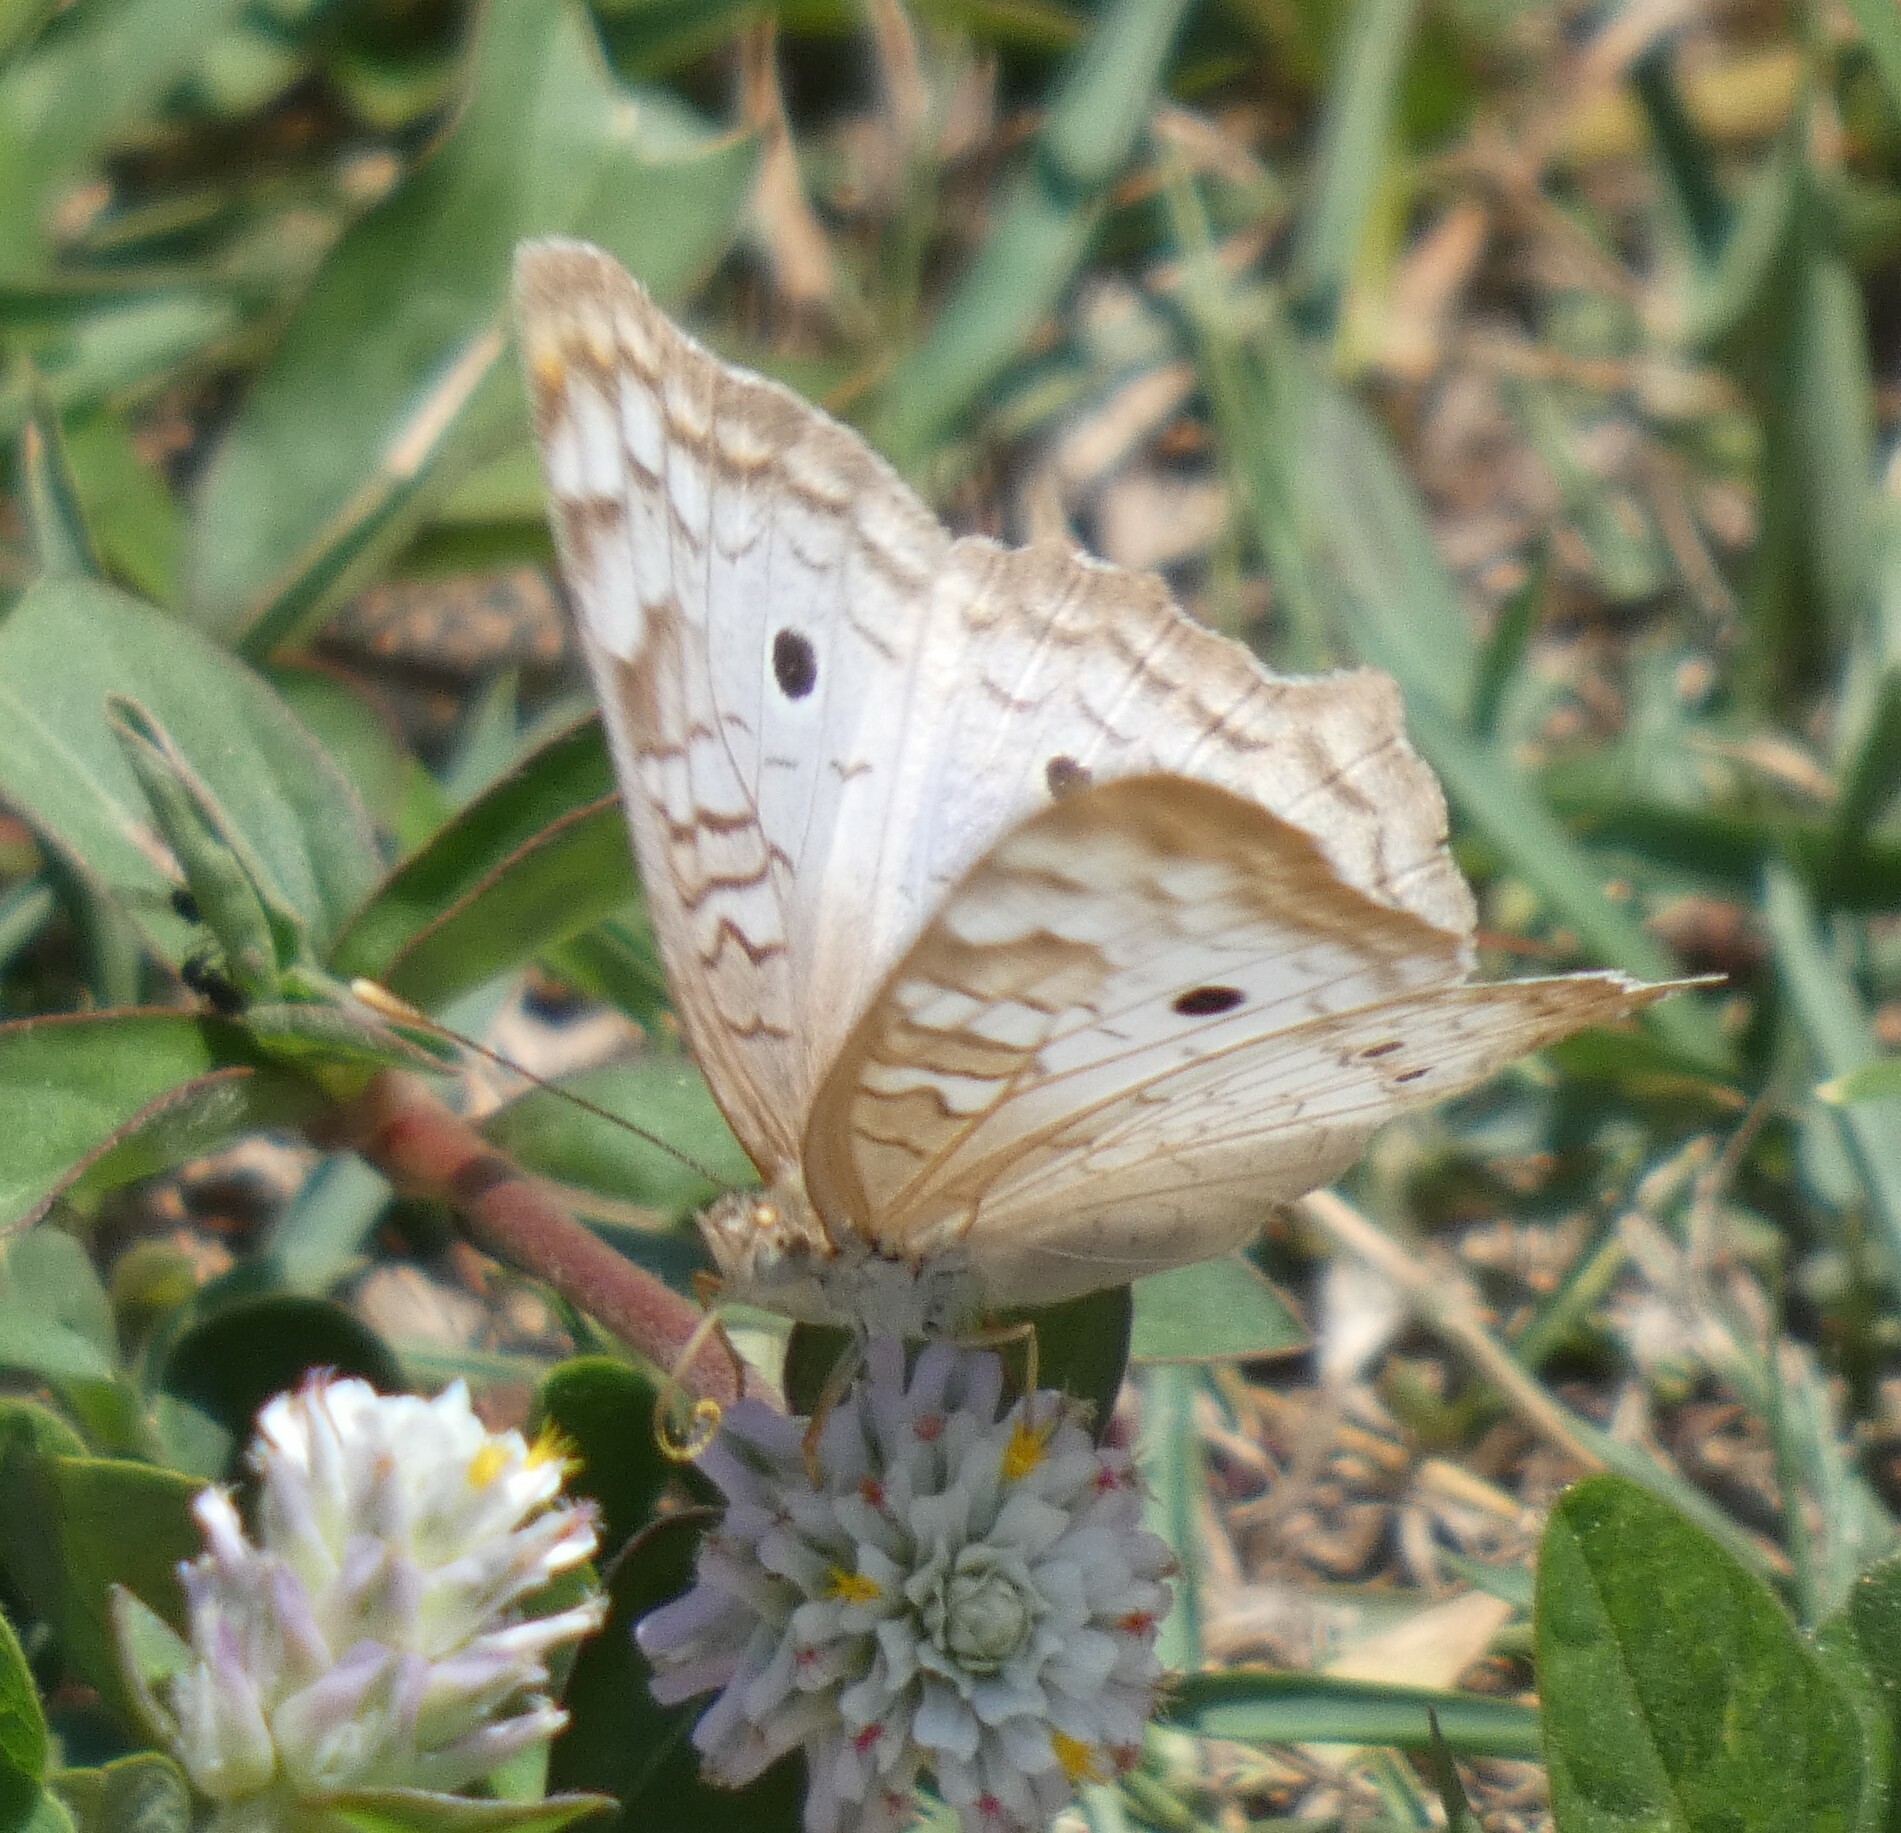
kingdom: Animalia
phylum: Arthropoda
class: Insecta
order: Lepidoptera
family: Nymphalidae
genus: Anartia
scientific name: Anartia jatrophae
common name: White peacock
